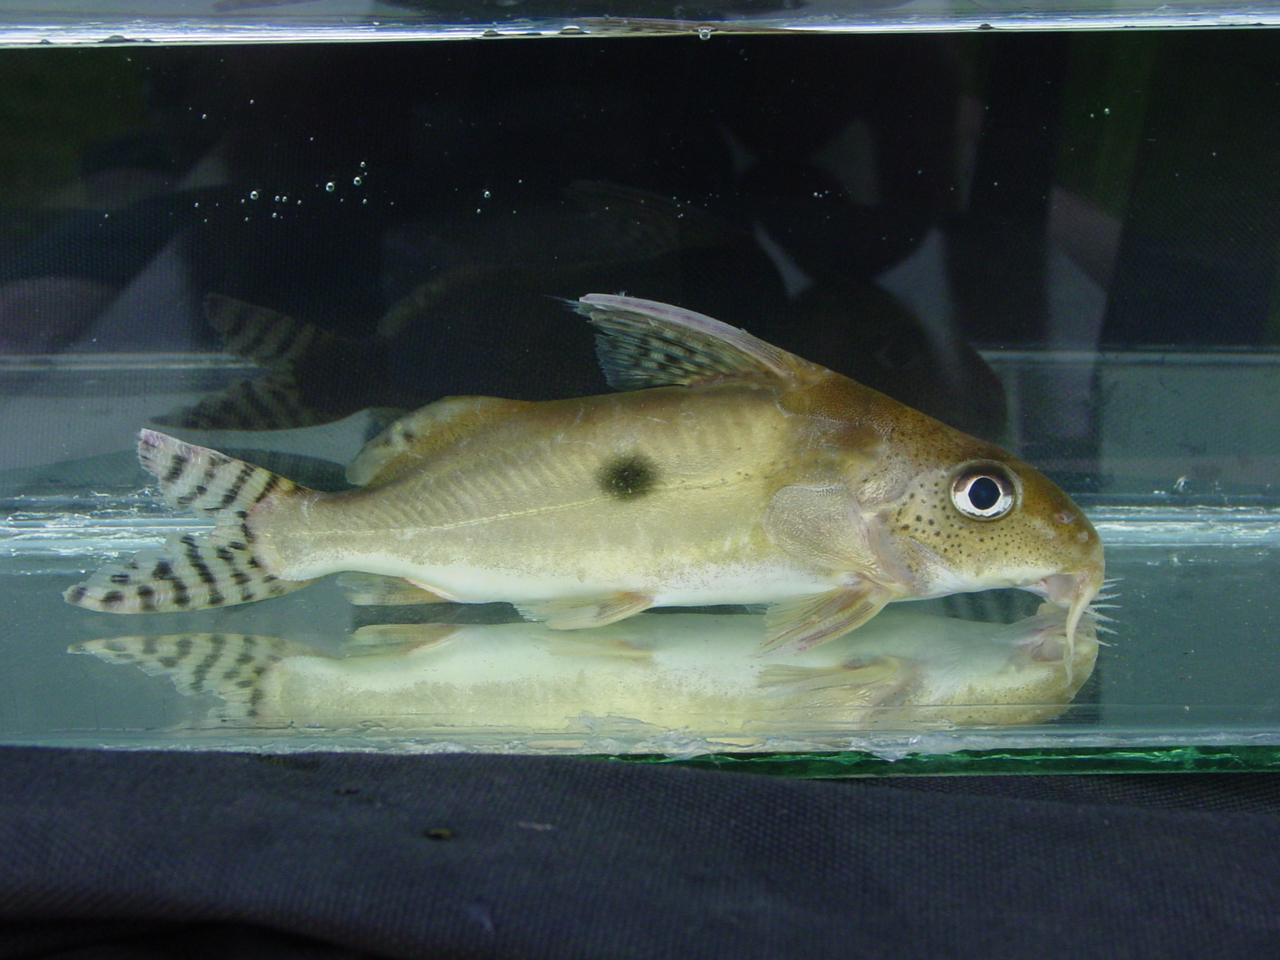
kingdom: Animalia
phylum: Chordata
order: Siluriformes
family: Mochokidae
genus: Synodontis
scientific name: Synodontis nummifer
